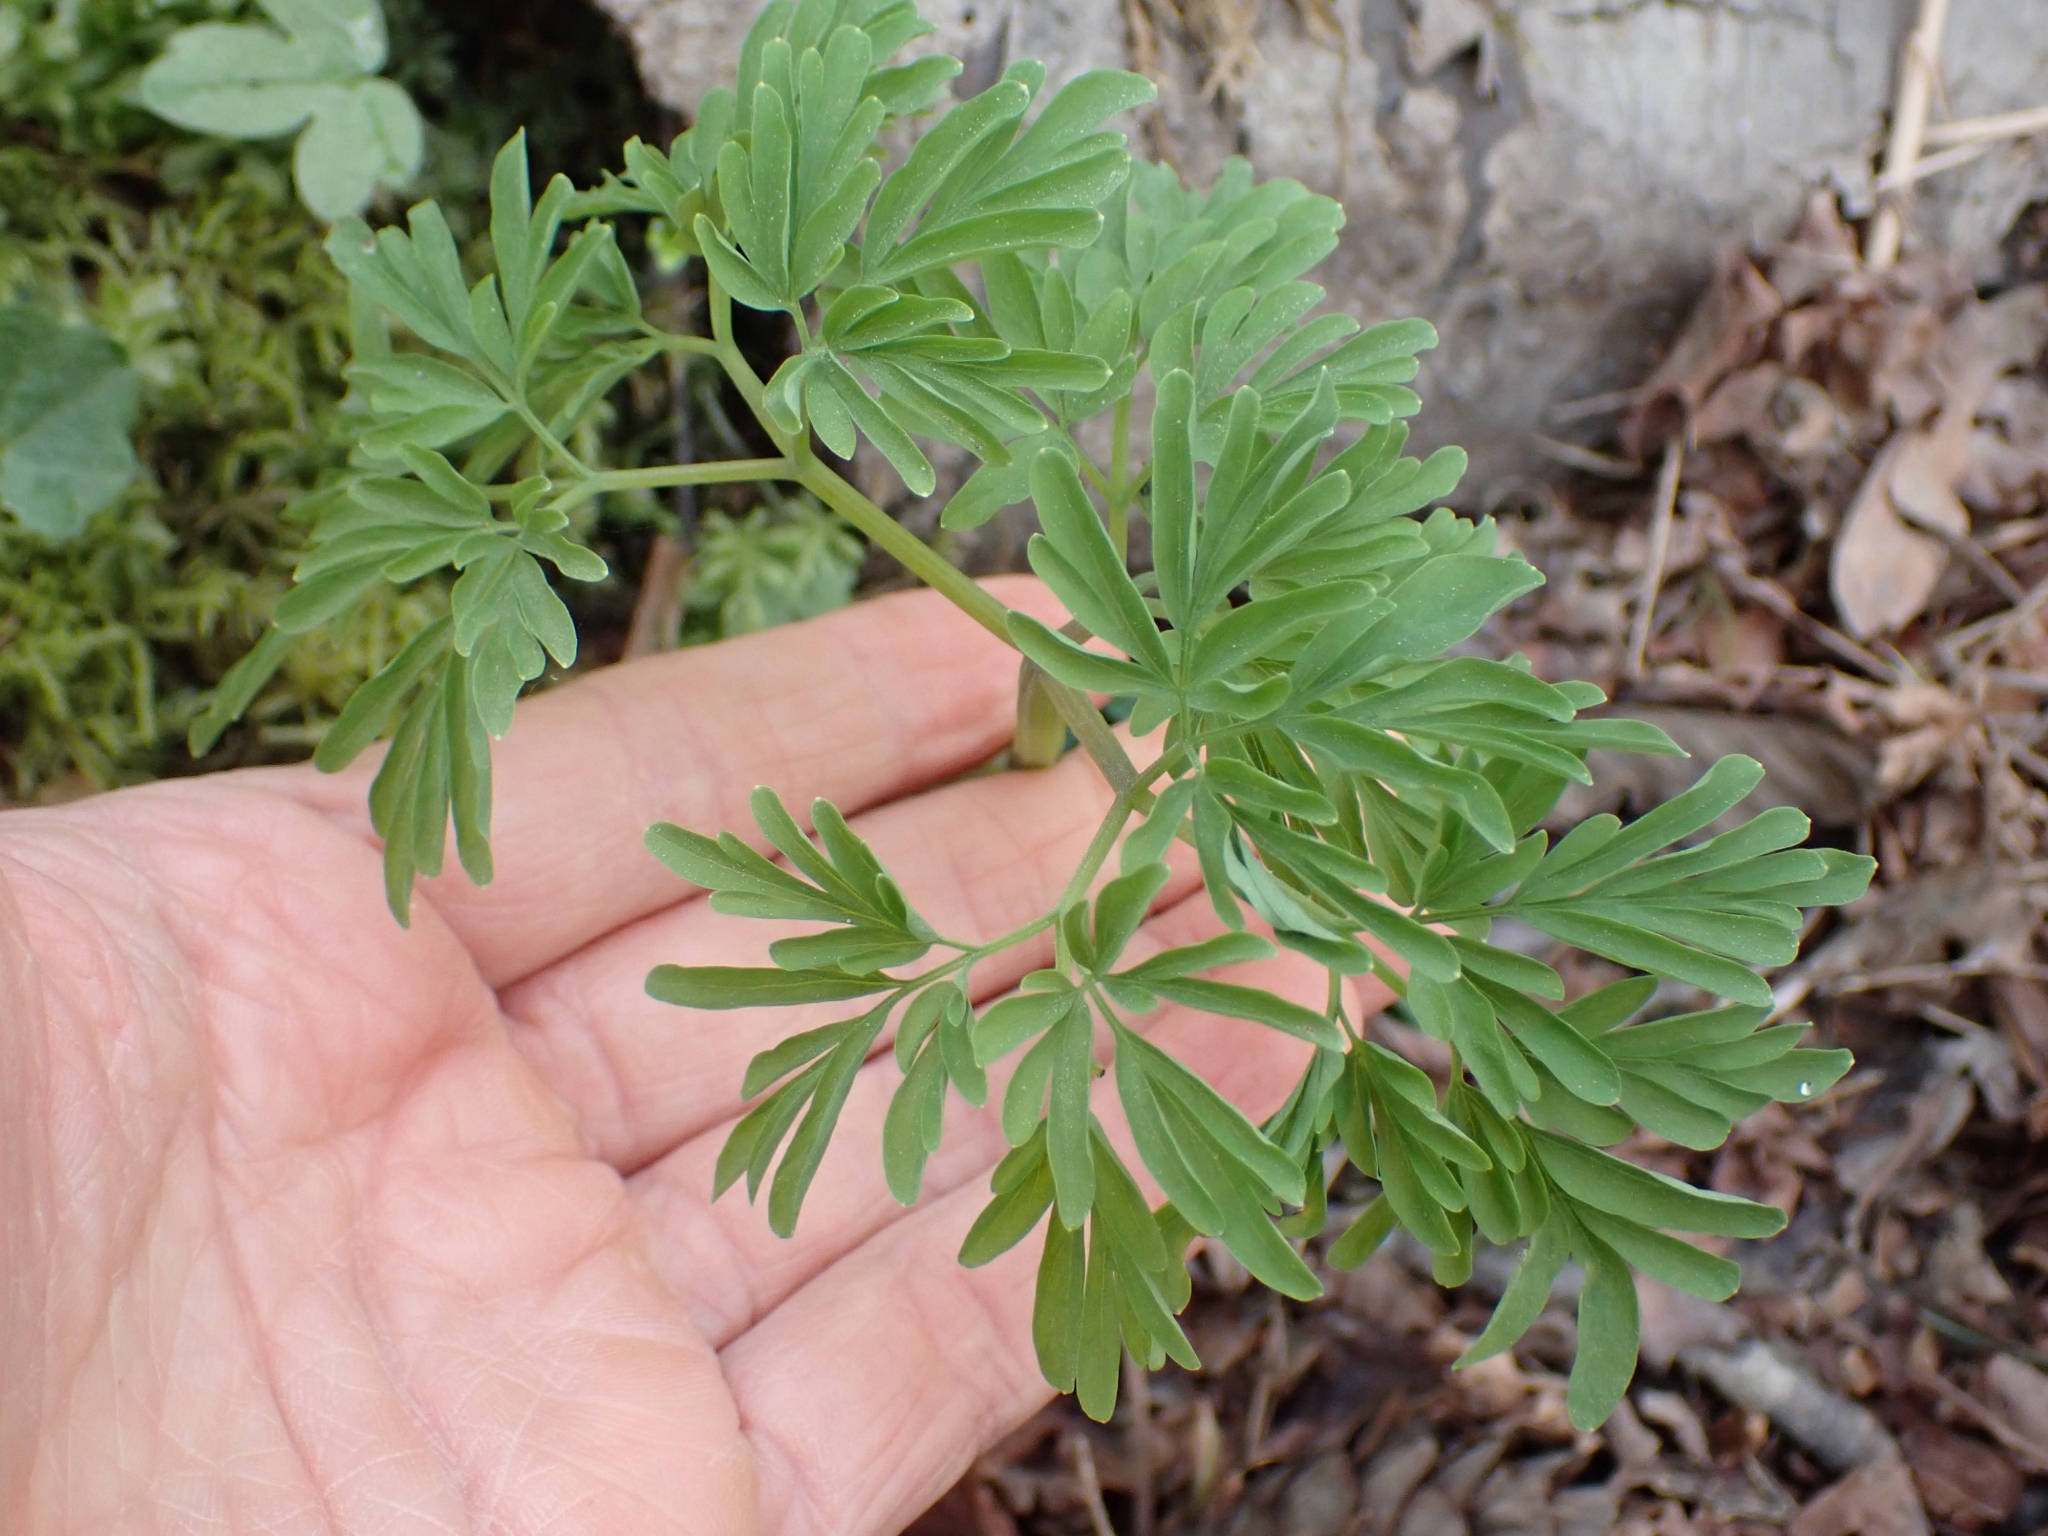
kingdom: Plantae
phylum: Tracheophyta
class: Magnoliopsida
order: Ranunculales
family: Papaveraceae
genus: Corydalis
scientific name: Corydalis scouleri
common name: Scouler's corydalis
